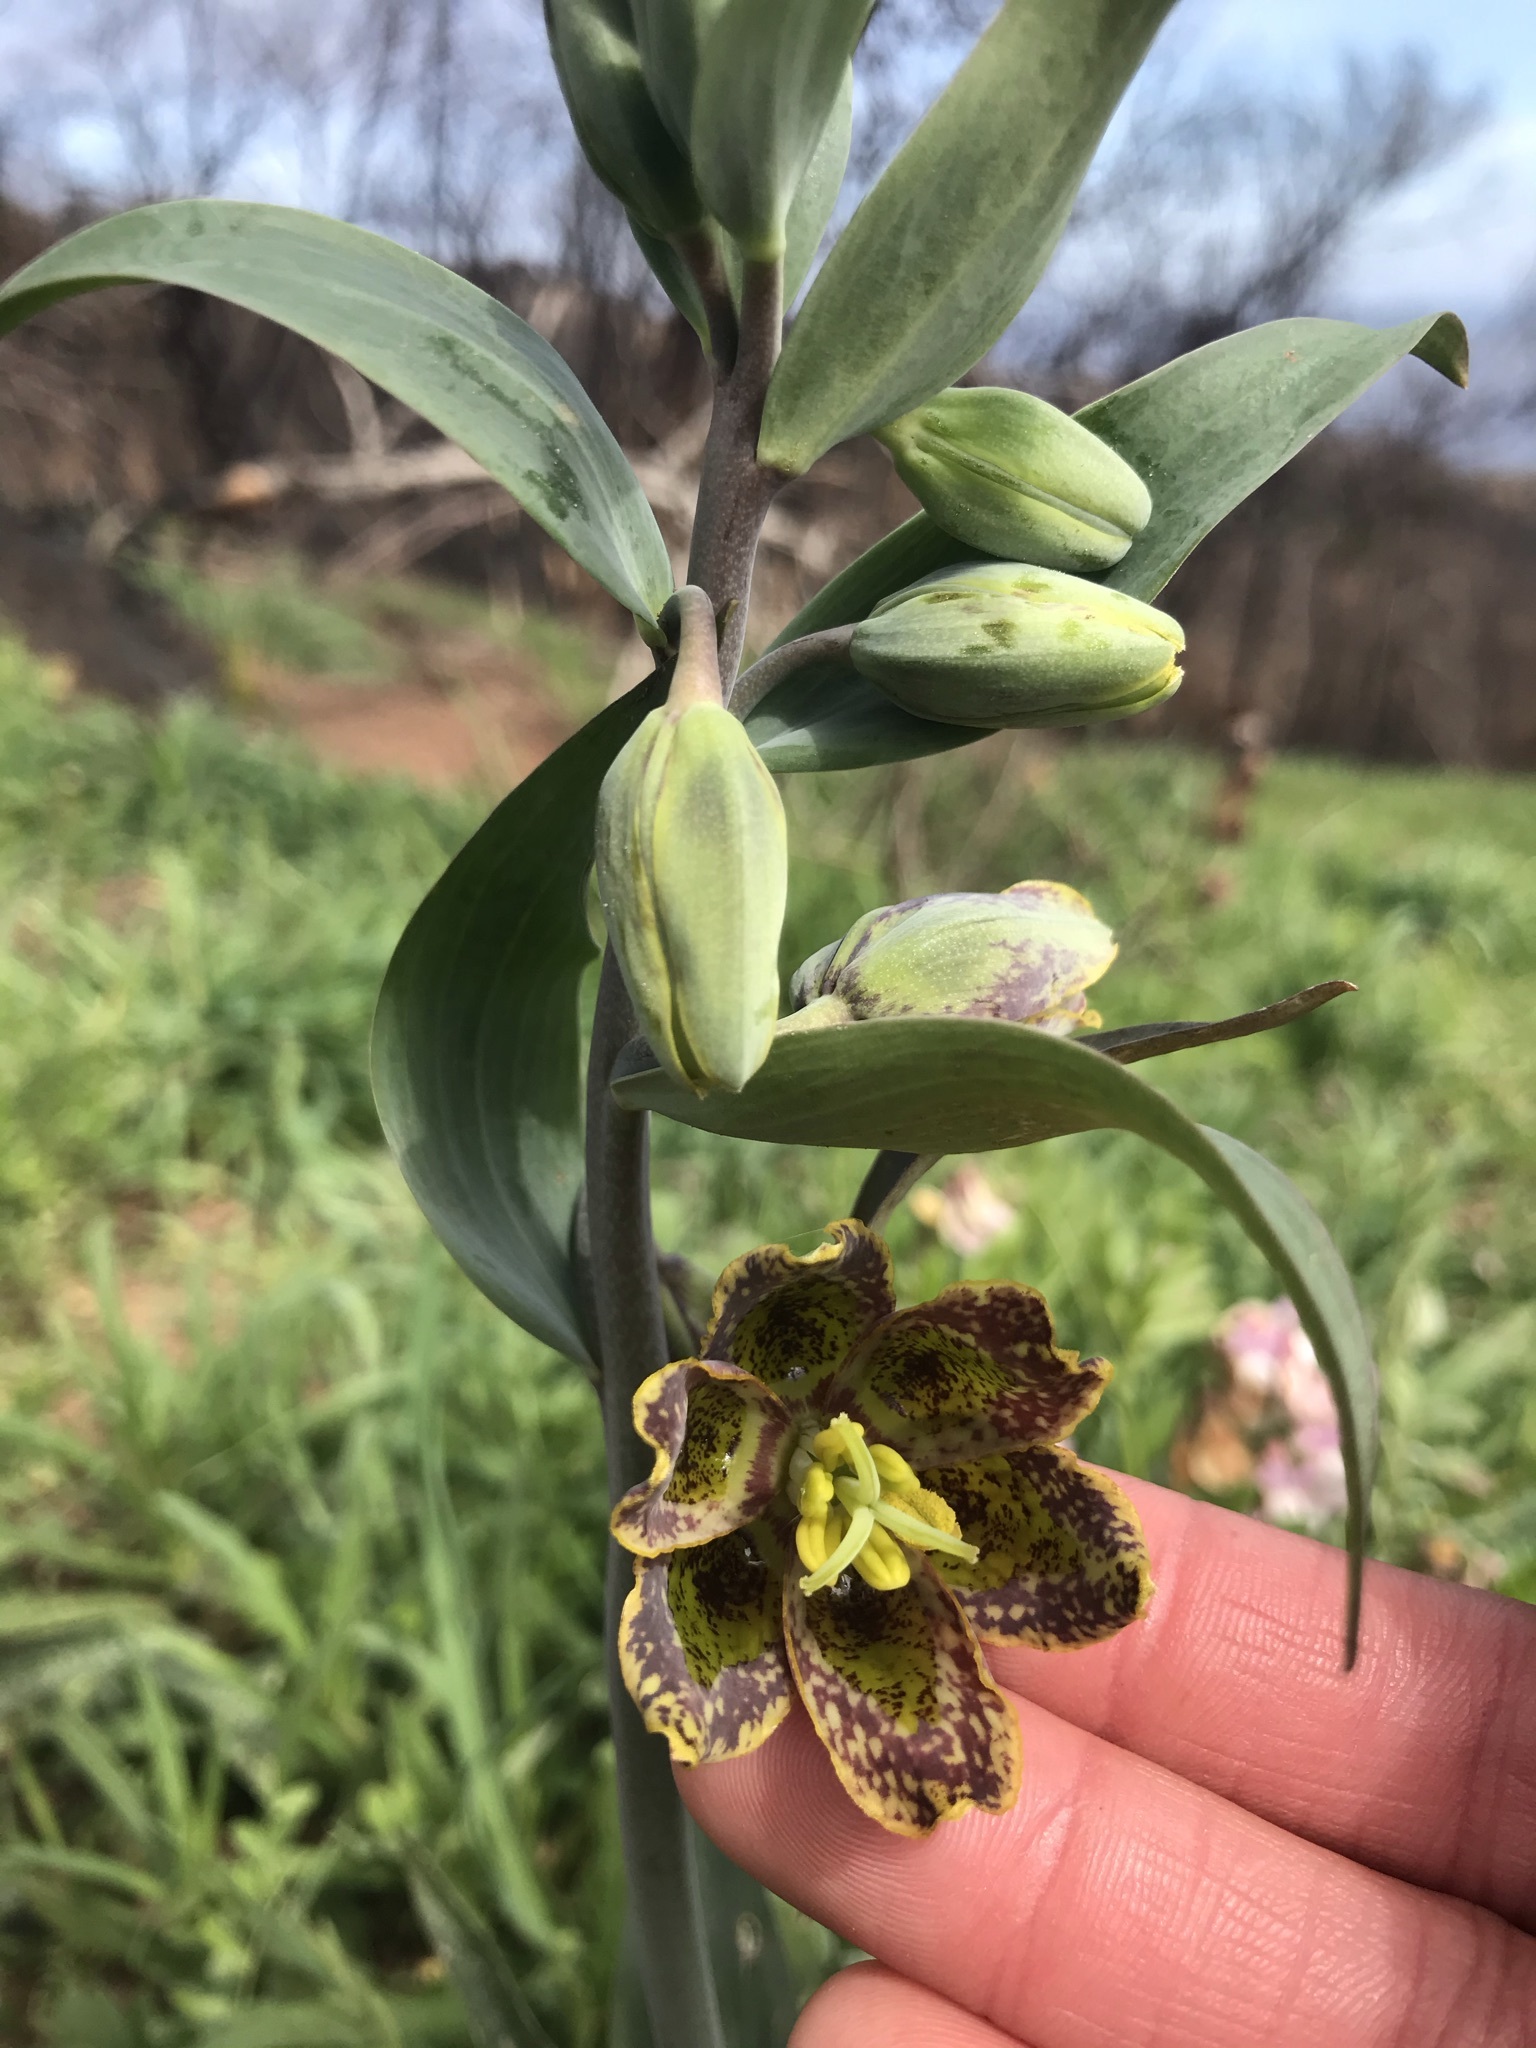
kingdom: Plantae
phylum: Tracheophyta
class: Liliopsida
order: Liliales
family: Liliaceae
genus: Fritillaria
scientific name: Fritillaria affinis
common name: Ojai fritillary
